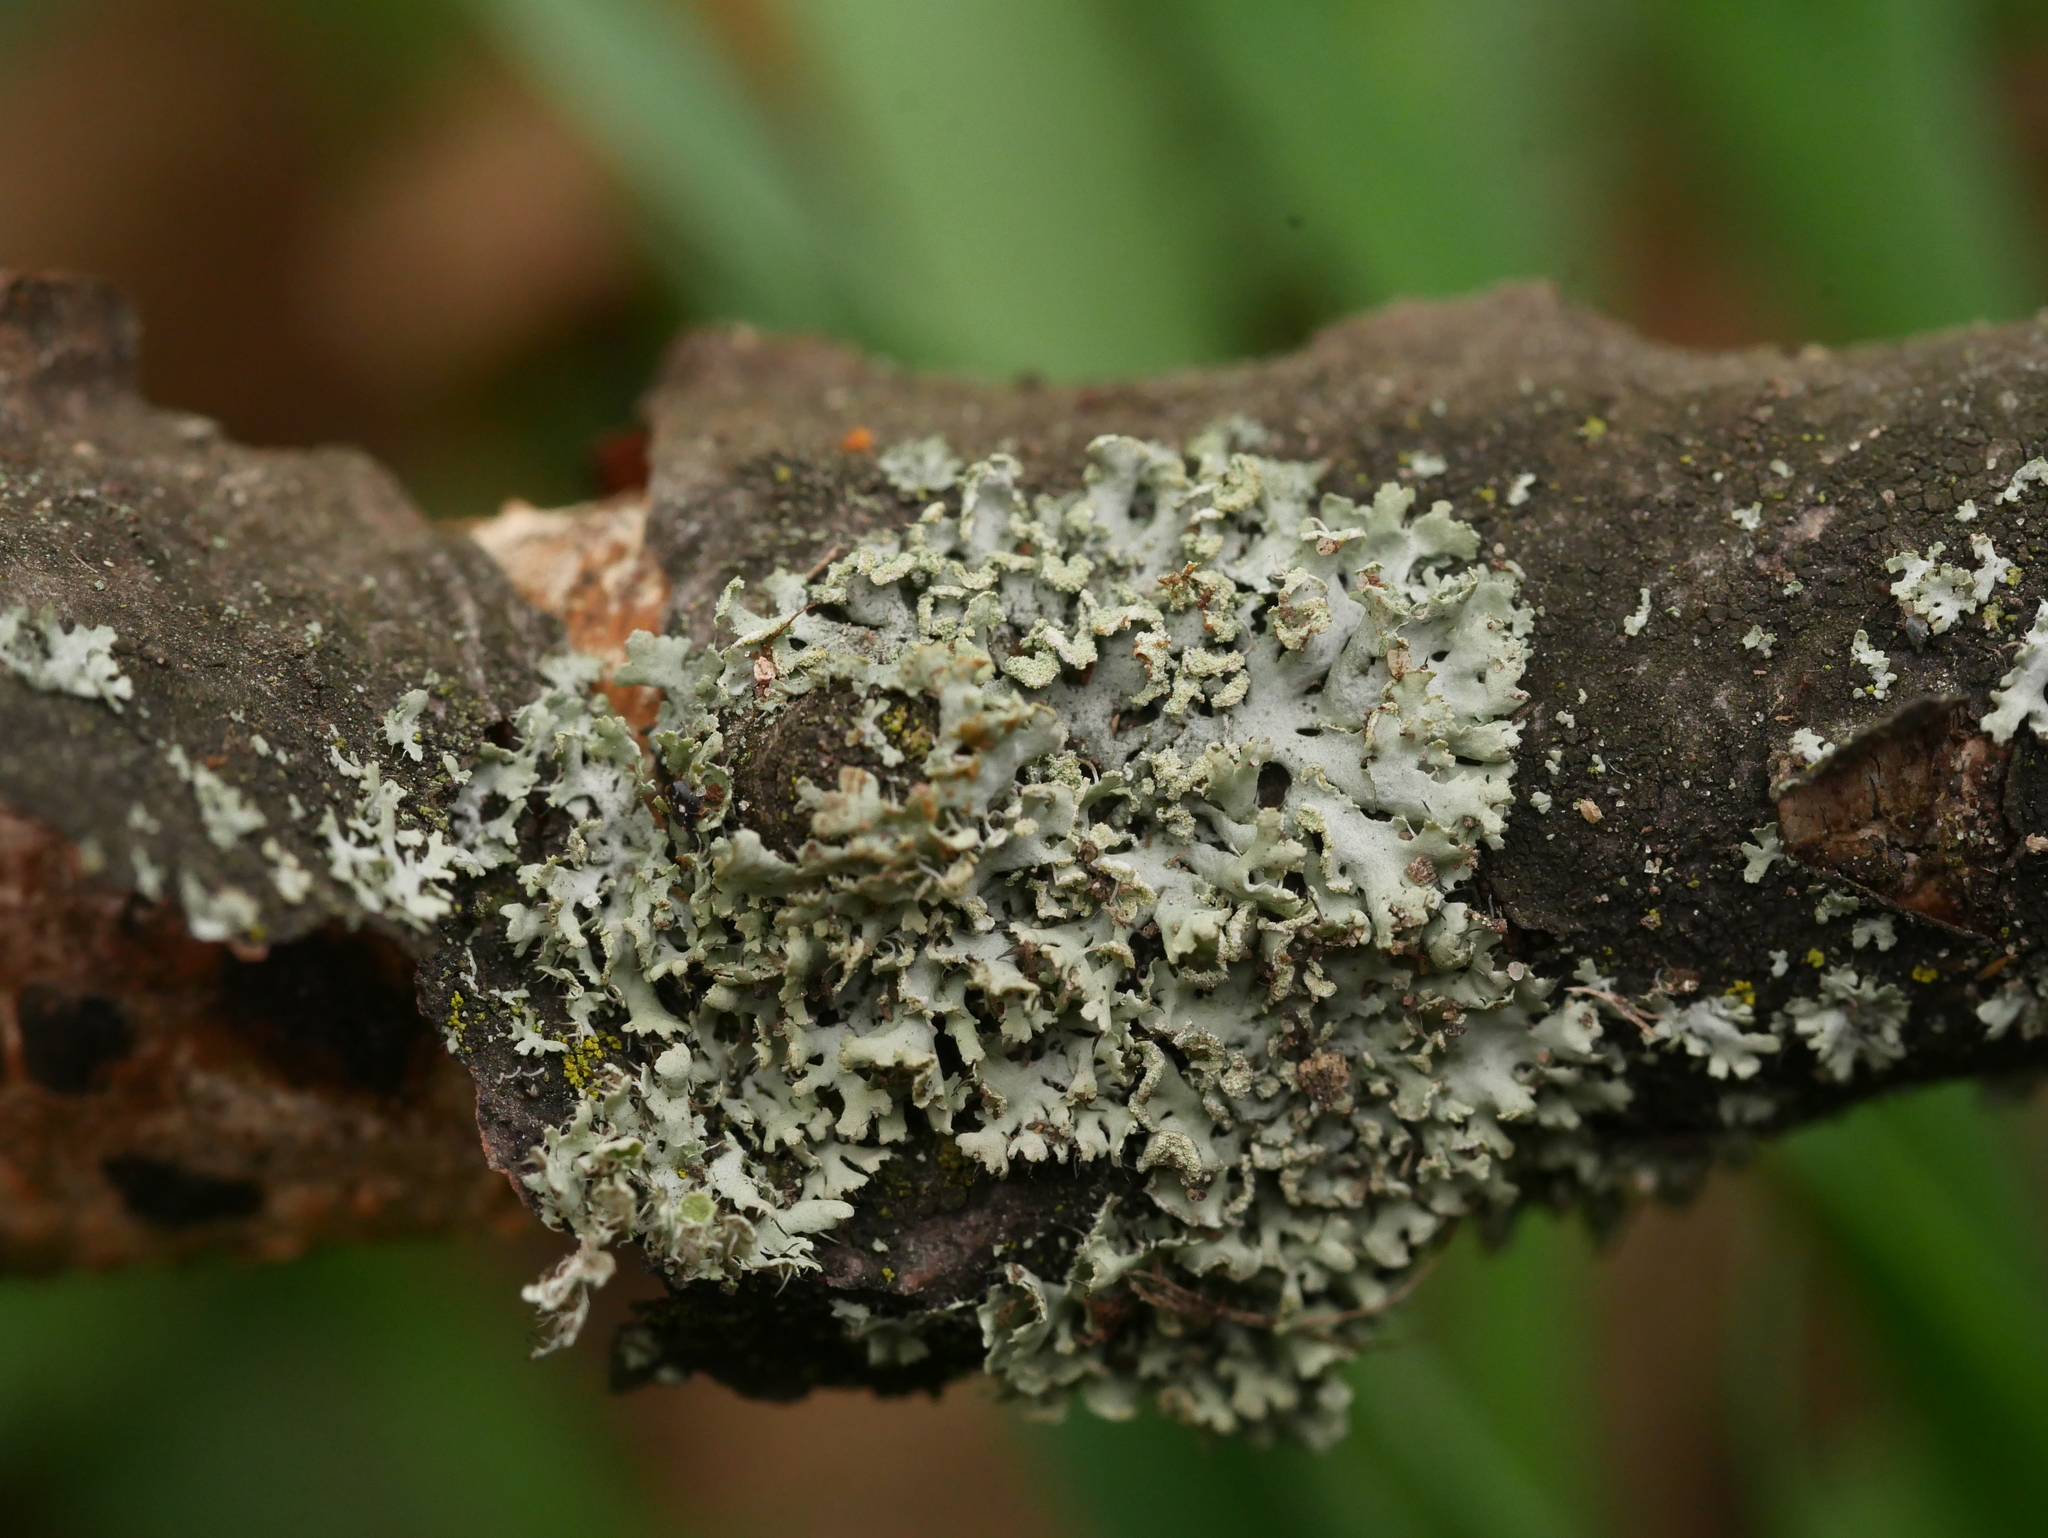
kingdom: Fungi
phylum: Ascomycota
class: Lecanoromycetes
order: Caliciales
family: Physciaceae
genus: Physcia
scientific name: Physcia adscendens
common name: Hooded rosette lichen
